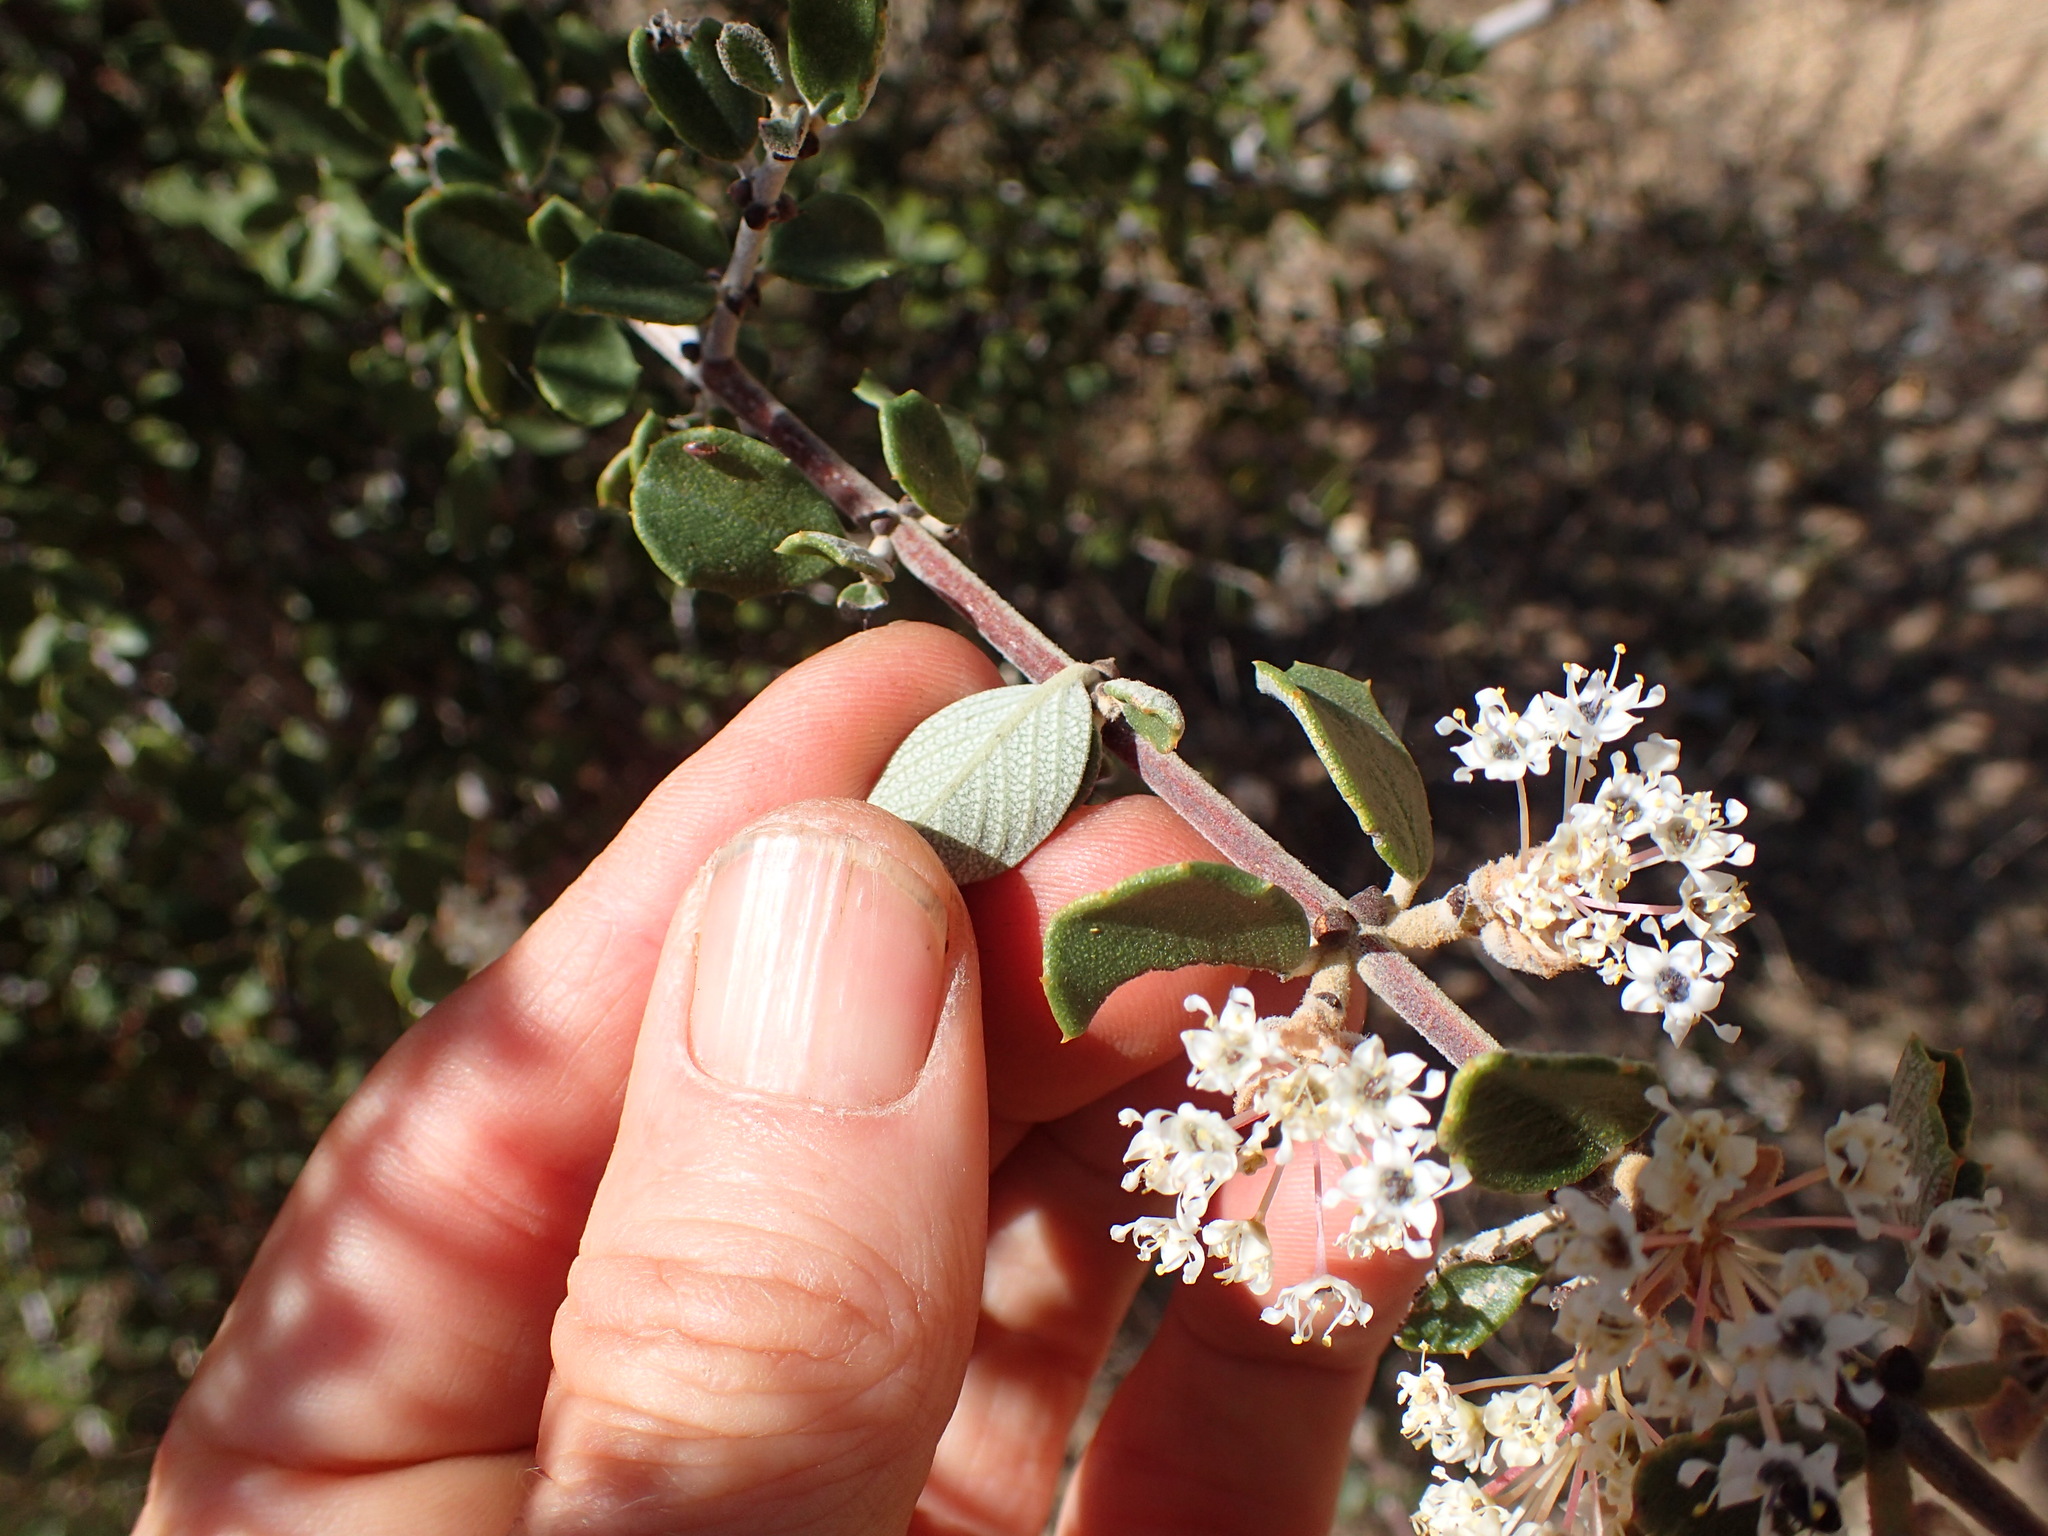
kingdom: Plantae
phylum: Tracheophyta
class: Magnoliopsida
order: Rosales
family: Rhamnaceae
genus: Ceanothus
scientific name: Ceanothus crassifolius
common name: Hoaryleaf ceanothus
